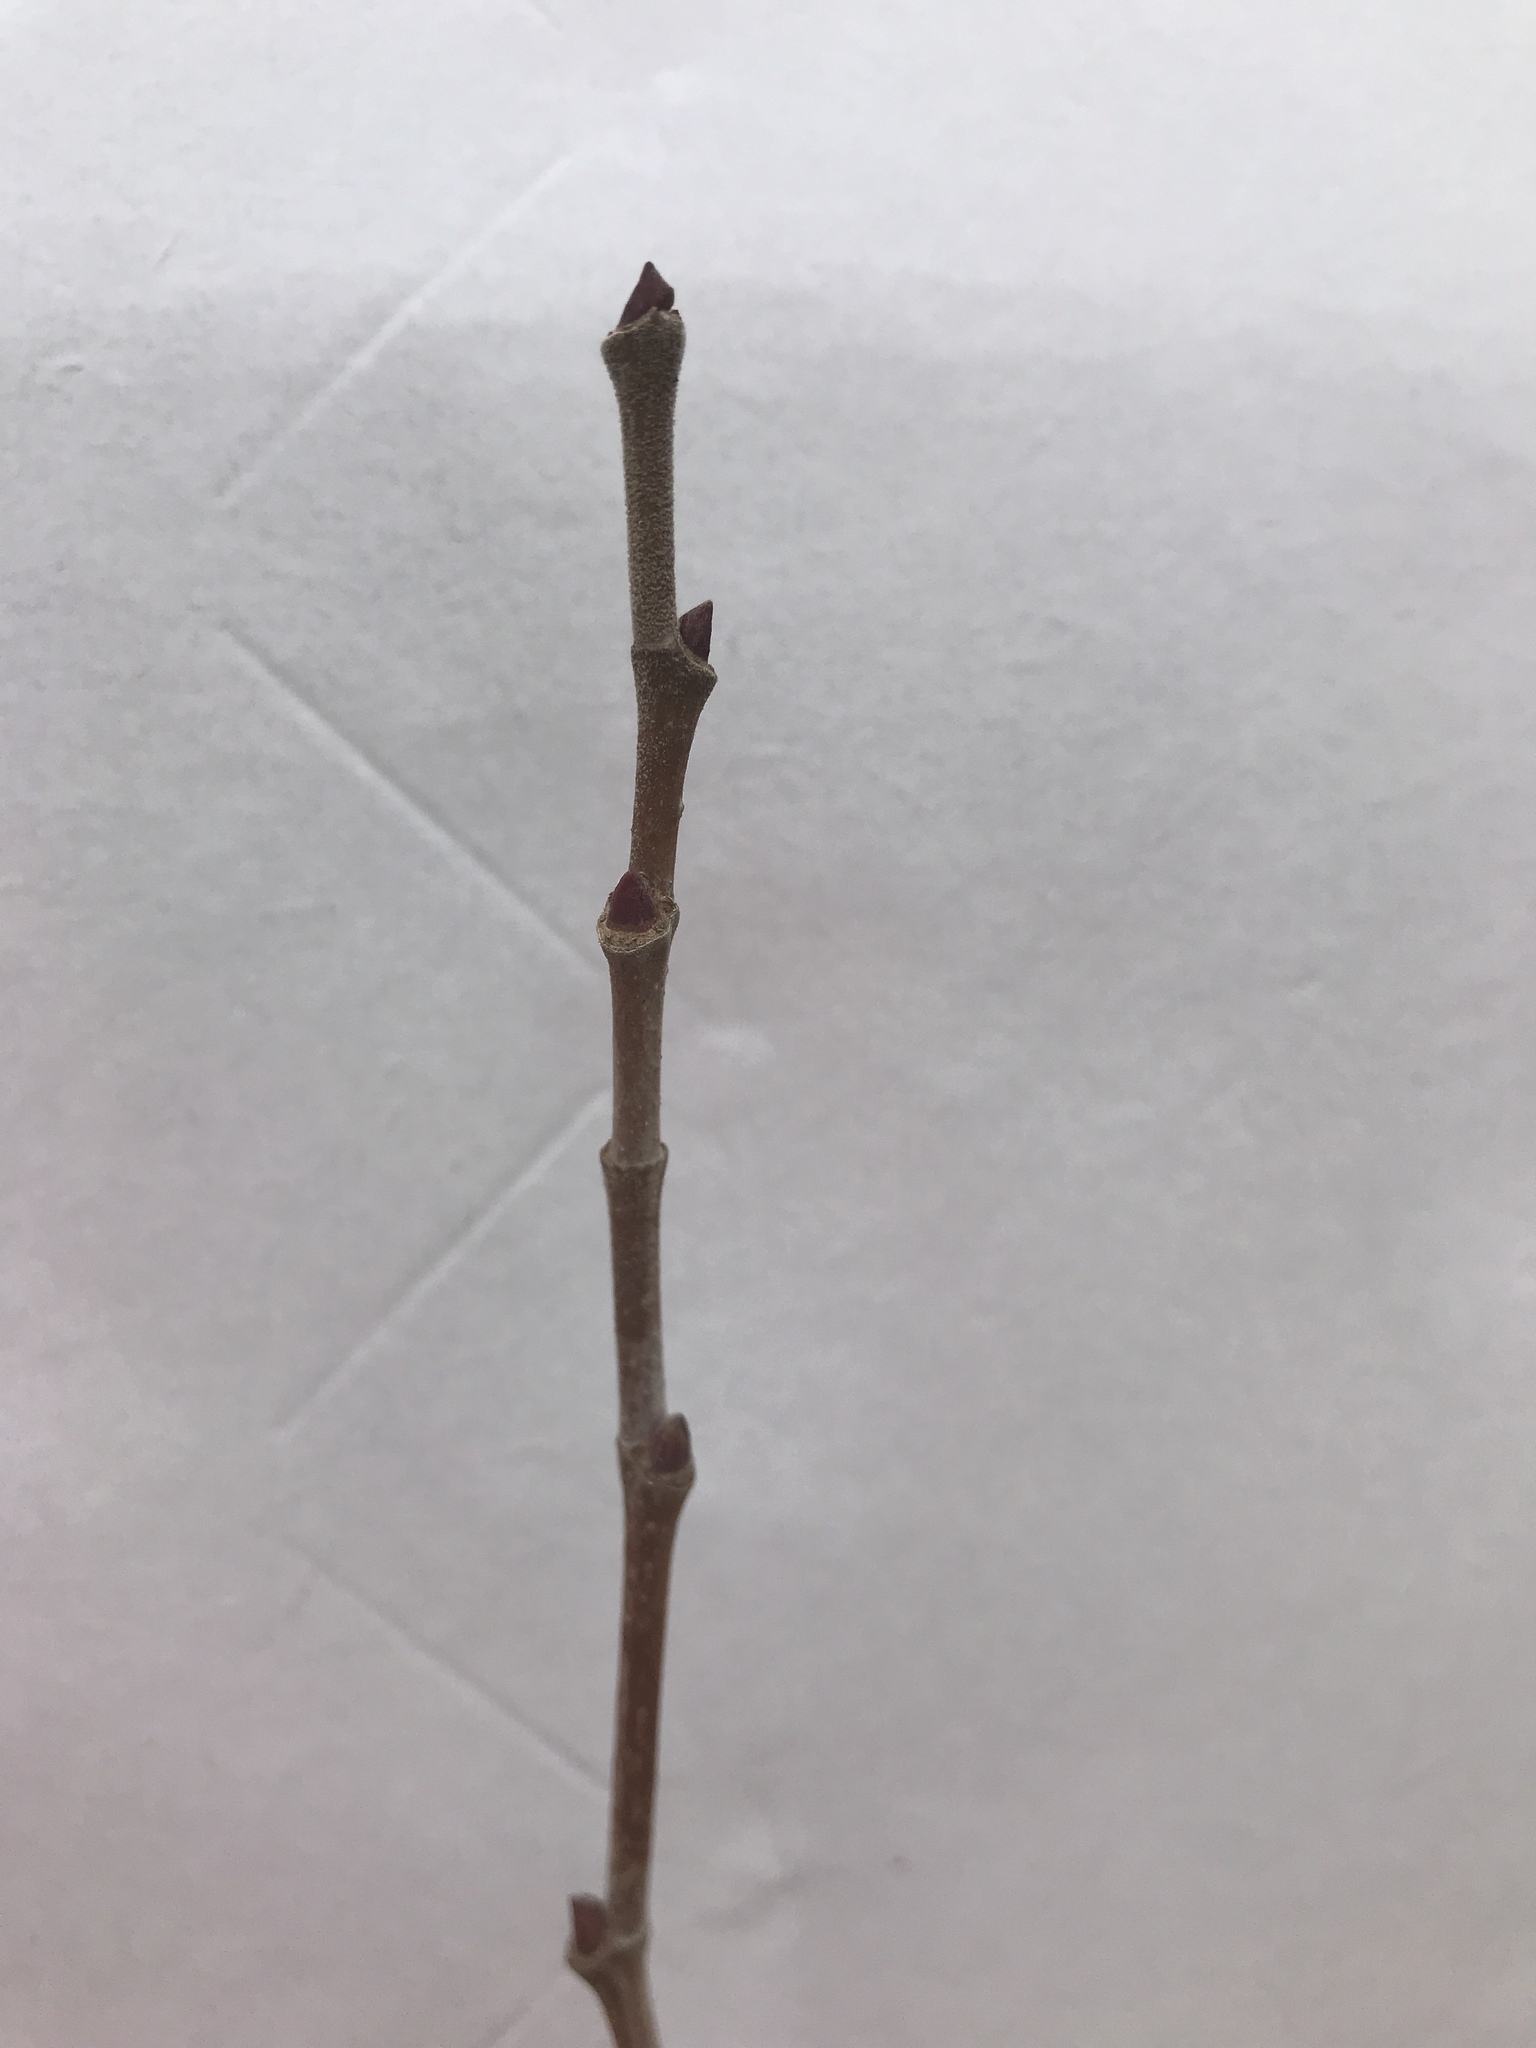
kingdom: Plantae
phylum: Tracheophyta
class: Magnoliopsida
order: Proteales
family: Platanaceae
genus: Platanus
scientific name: Platanus occidentalis
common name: American sycamore
